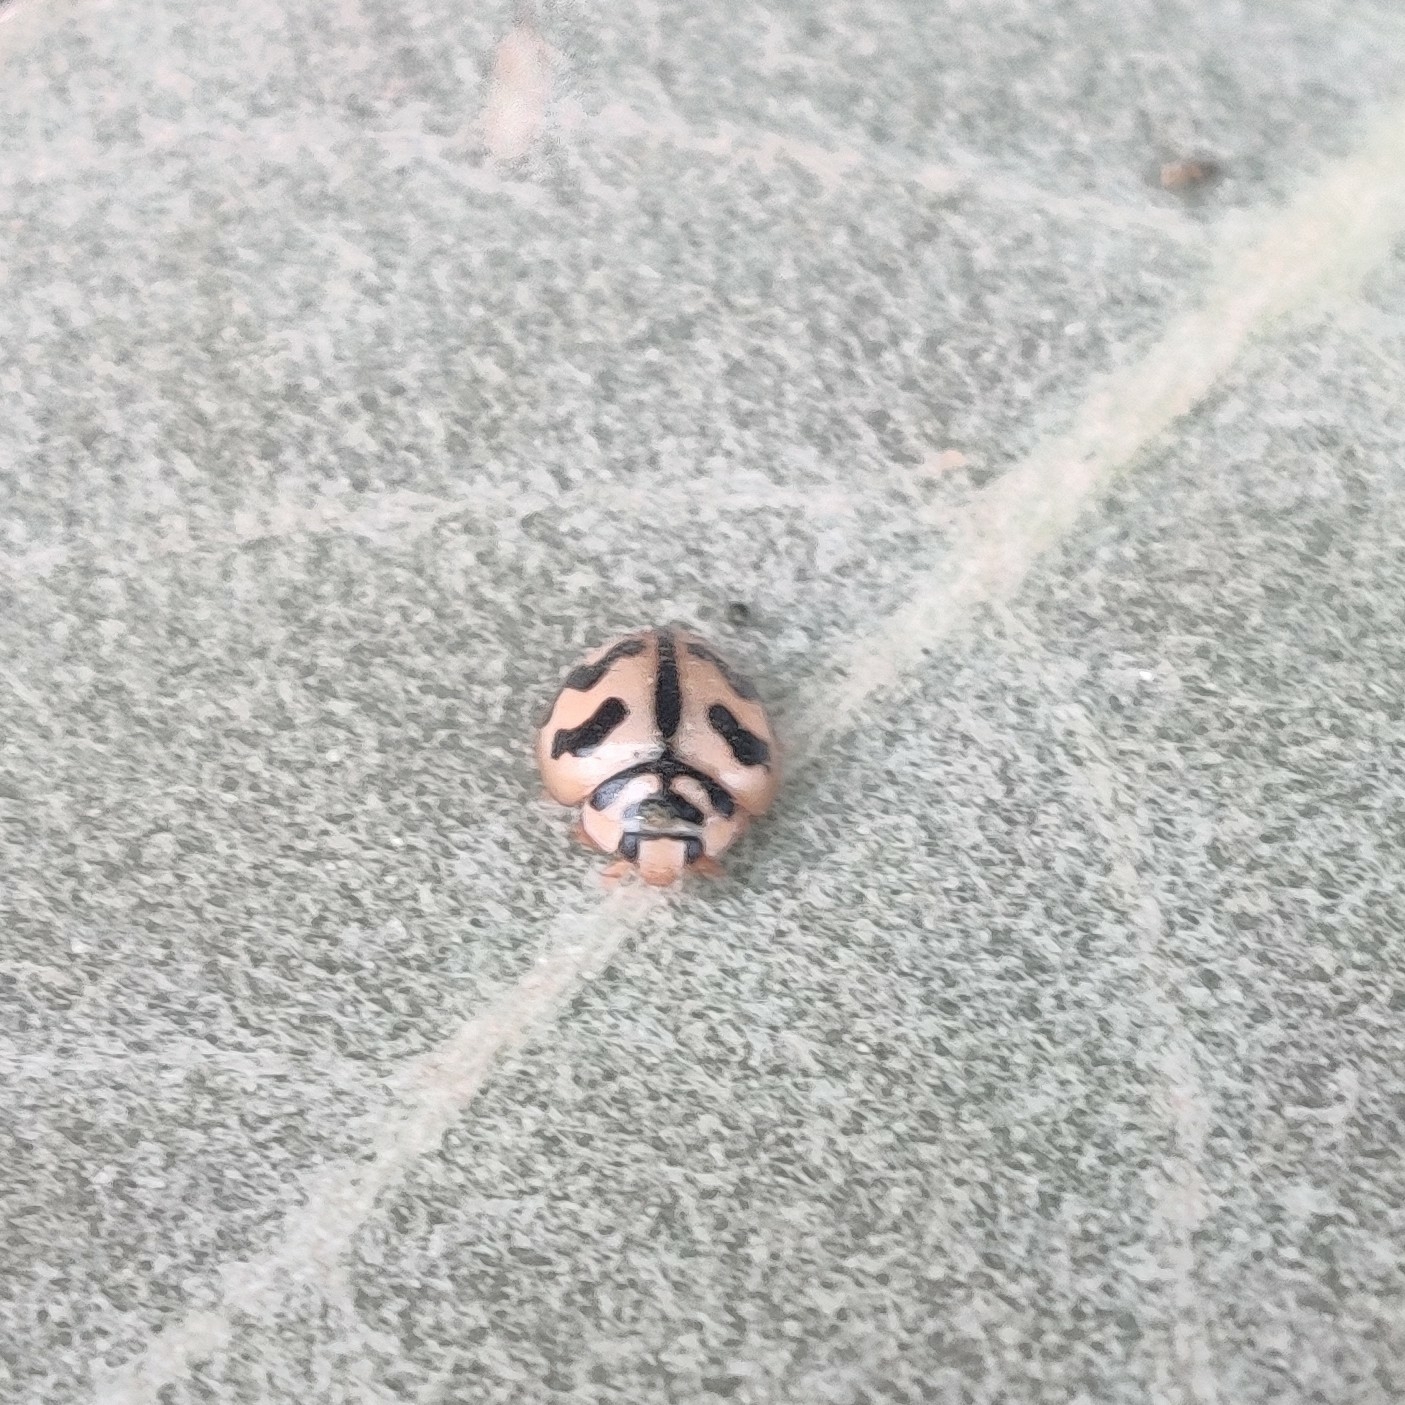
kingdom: Animalia
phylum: Arthropoda
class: Insecta
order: Coleoptera
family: Coccinellidae
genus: Cheilomenes
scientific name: Cheilomenes sexmaculata
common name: Ladybird beetle
